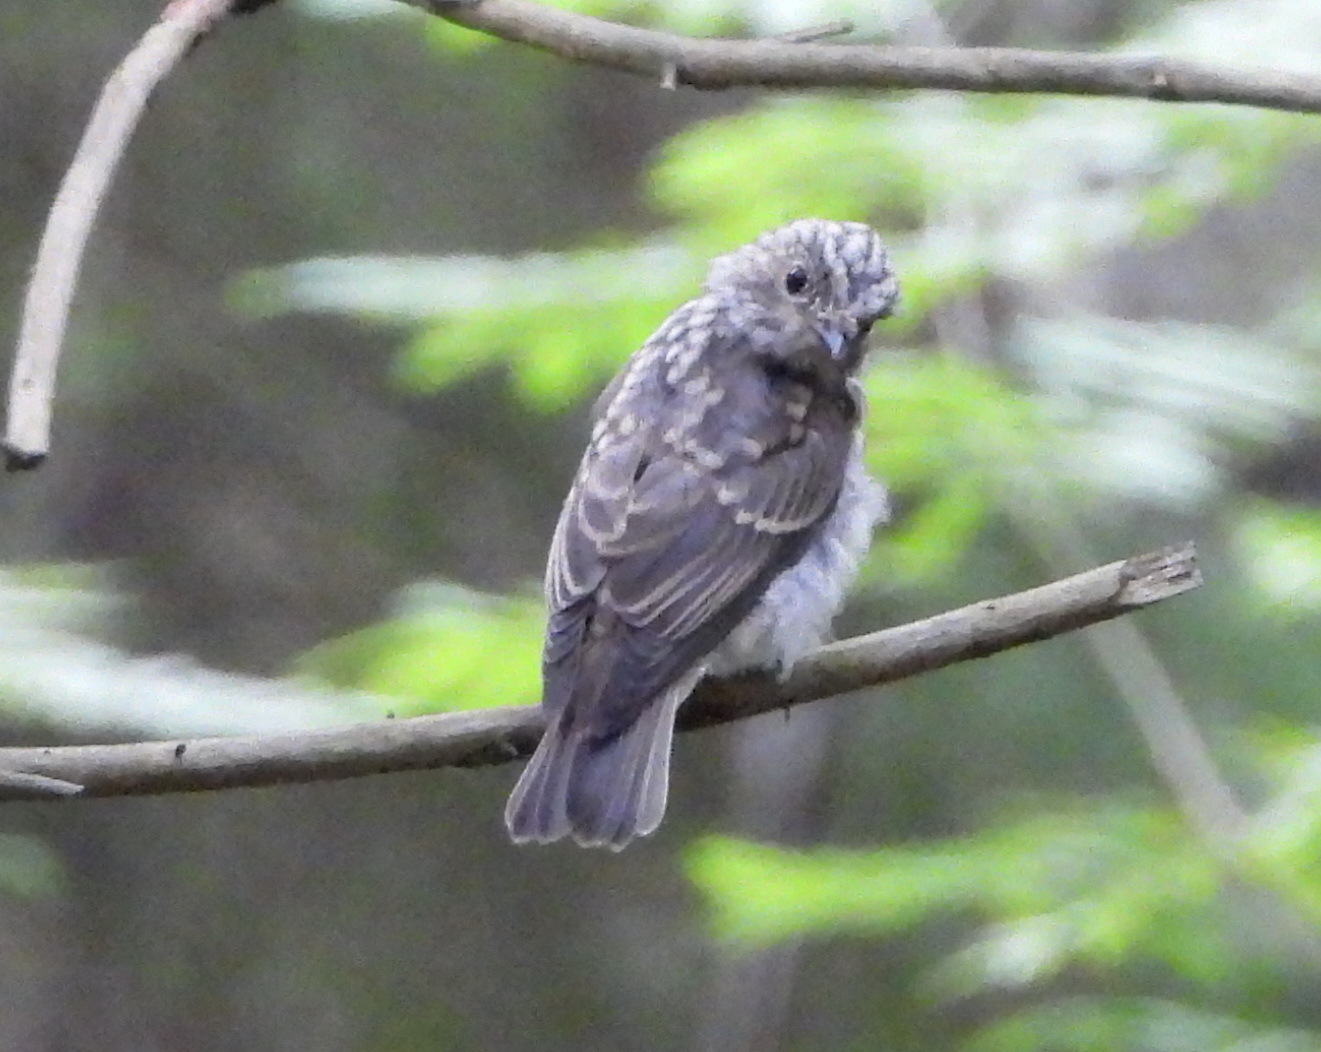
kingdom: Animalia
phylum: Chordata
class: Aves
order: Passeriformes
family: Muscicapidae
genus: Muscicapa
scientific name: Muscicapa striata
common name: Spotted flycatcher
